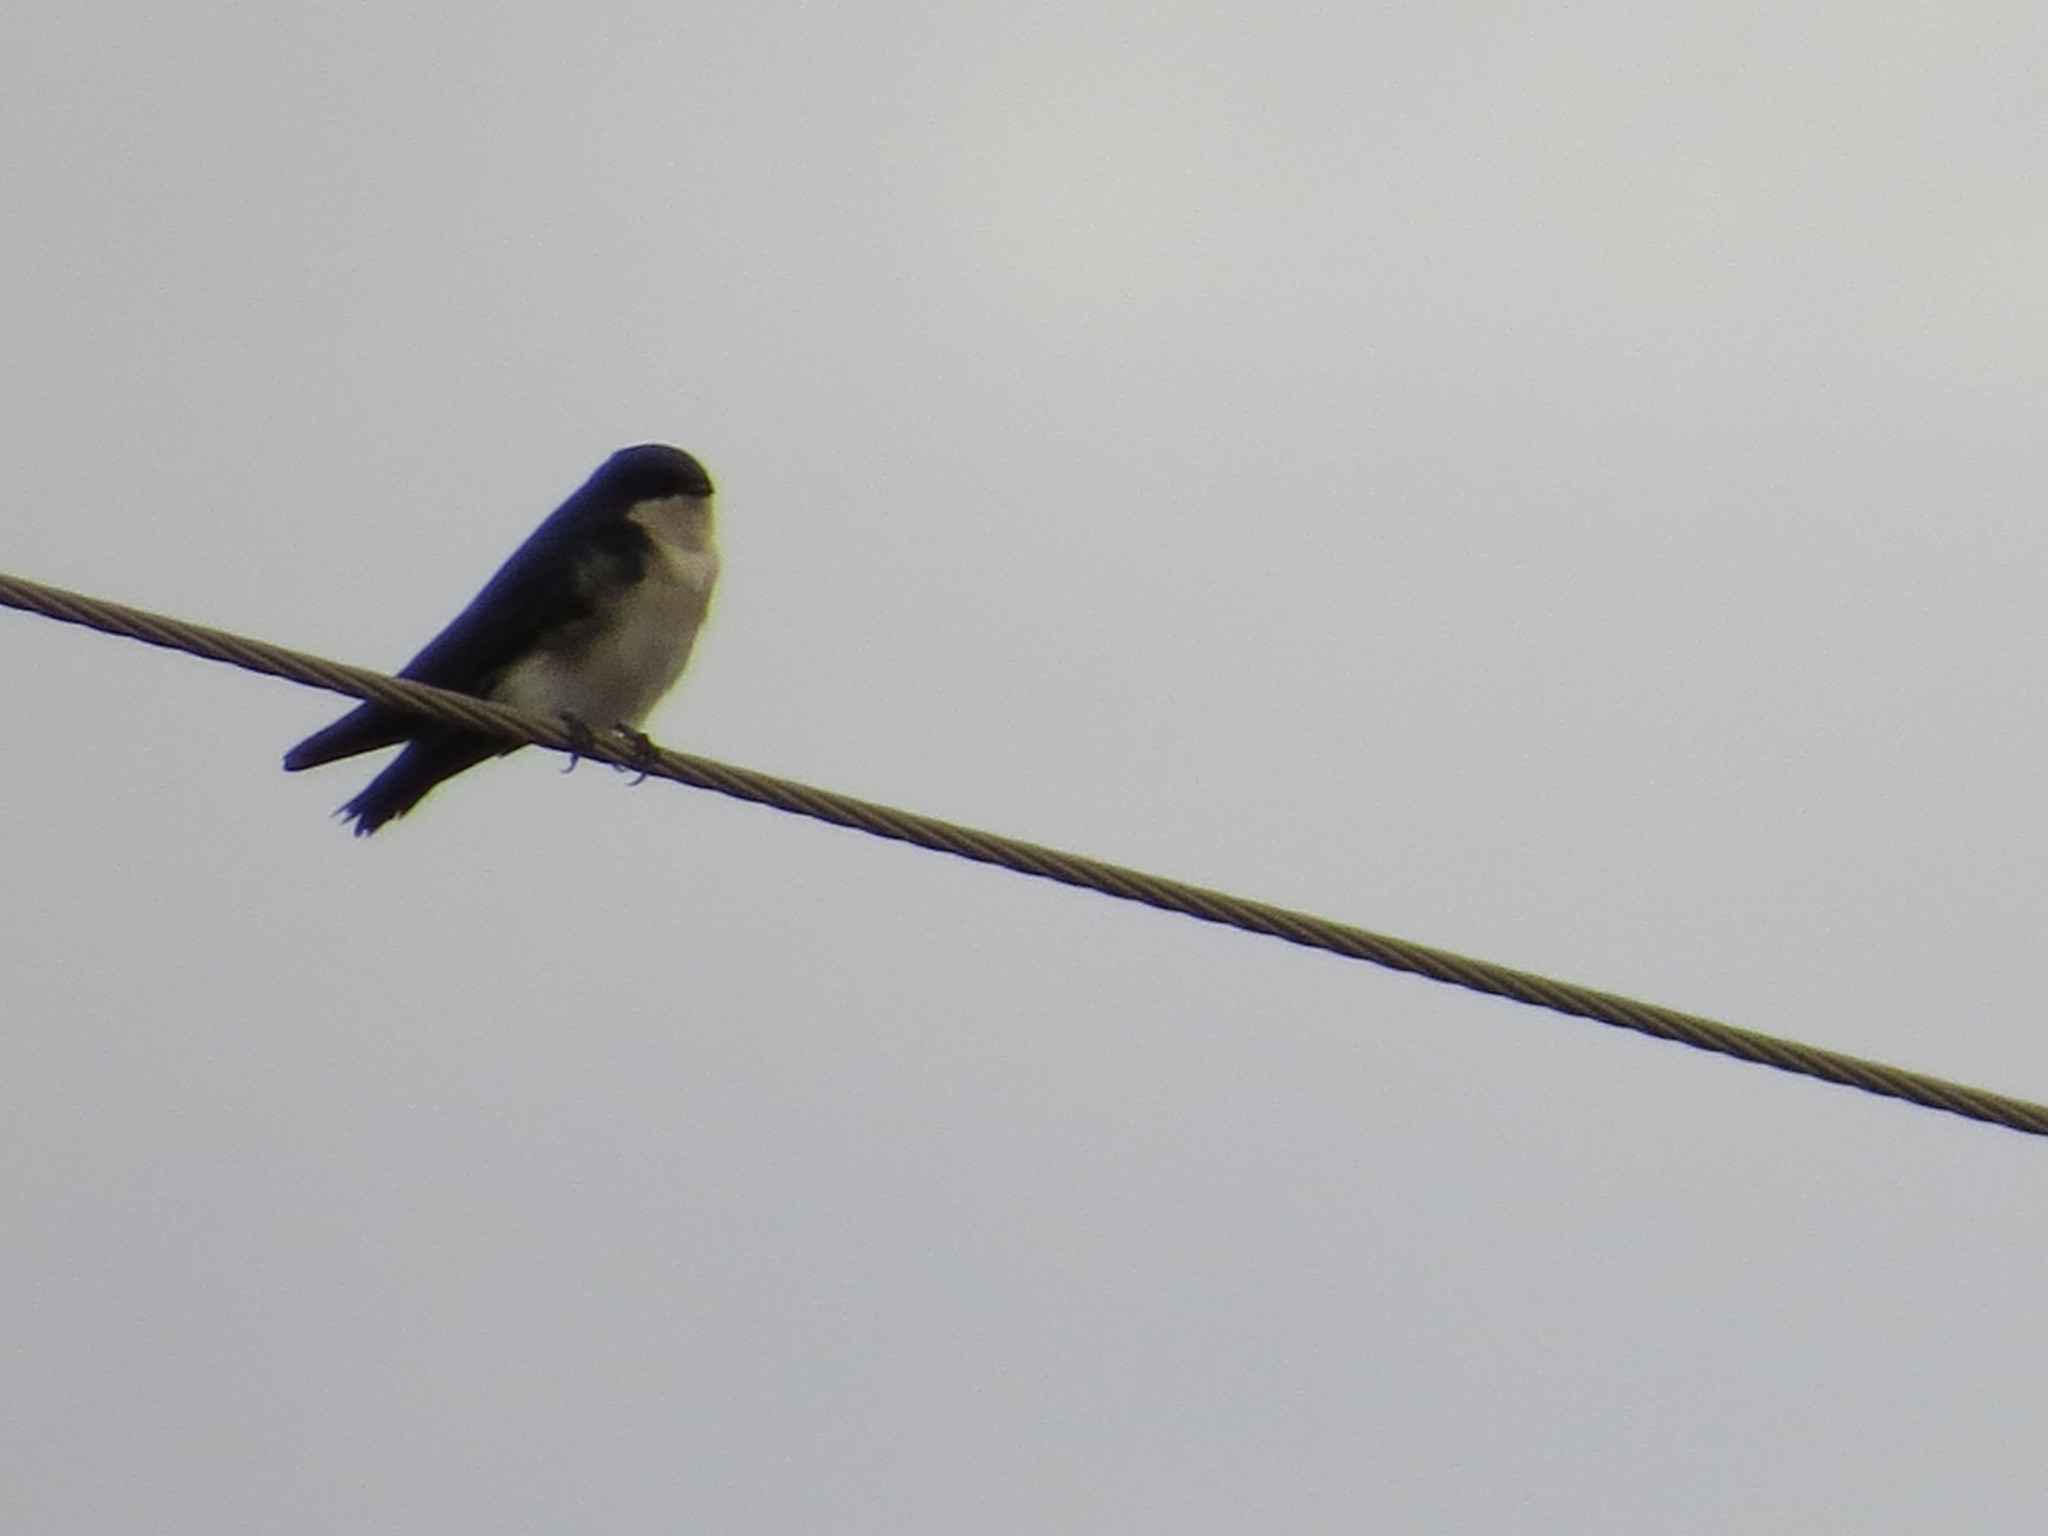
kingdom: Animalia
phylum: Chordata
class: Aves
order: Passeriformes
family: Hirundinidae
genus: Notiochelidon
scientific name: Notiochelidon cyanoleuca
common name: Blue-and-white swallow
